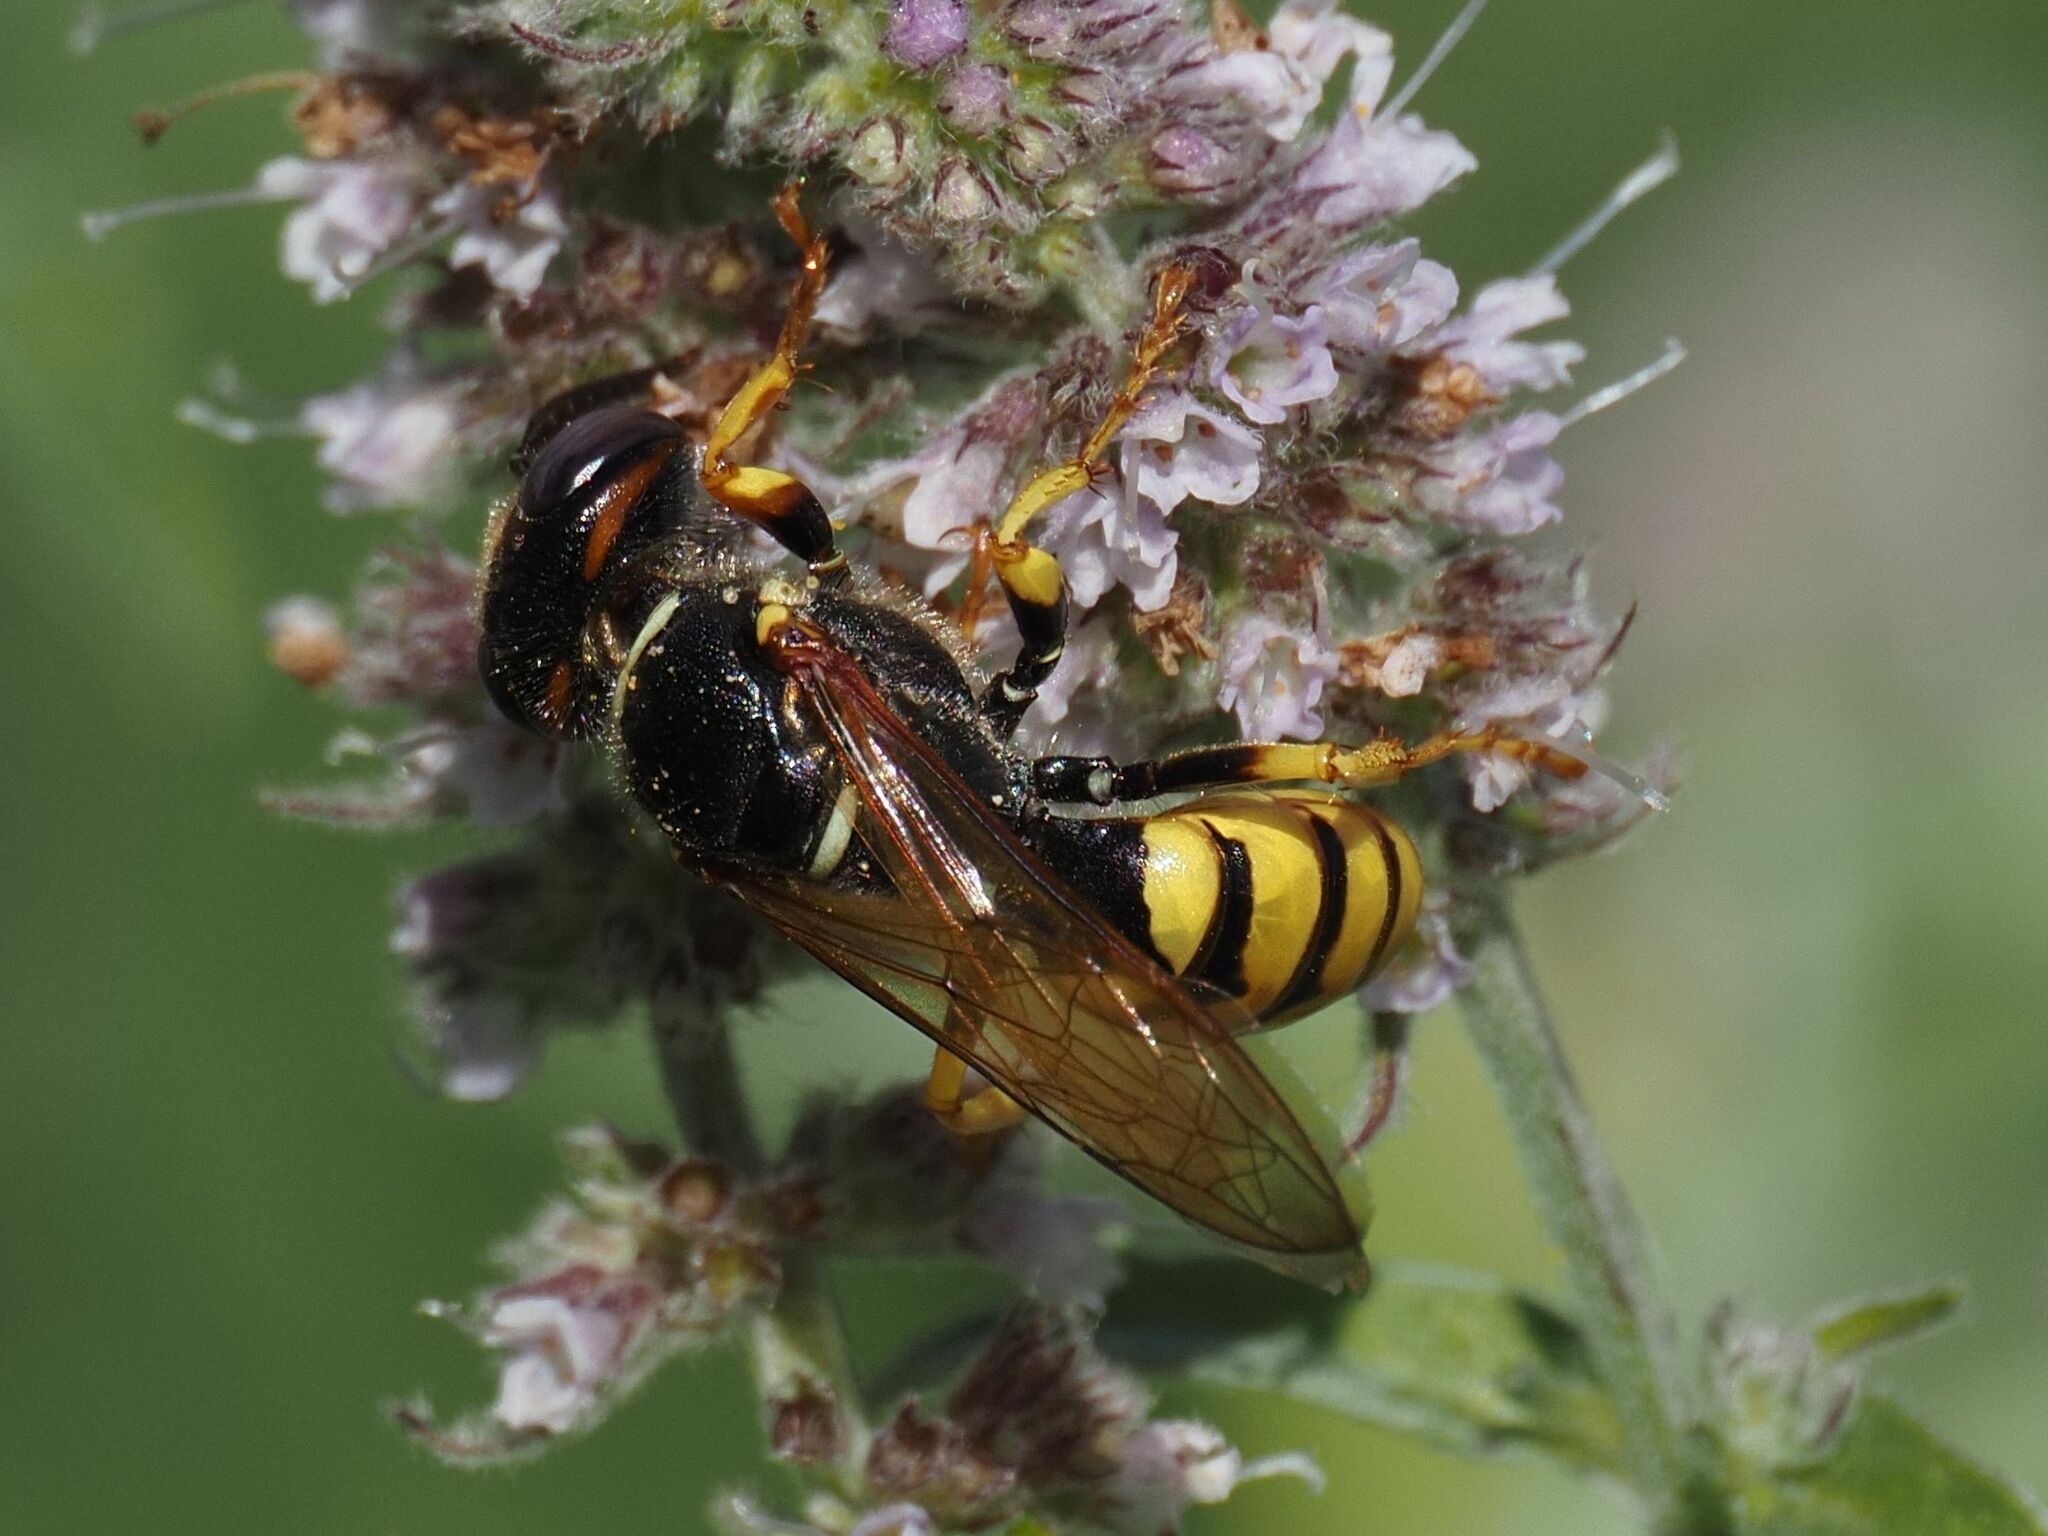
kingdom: Animalia
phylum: Arthropoda
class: Insecta
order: Hymenoptera
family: Crabronidae
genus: Philanthus
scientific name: Philanthus triangulum
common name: Bee wolf
